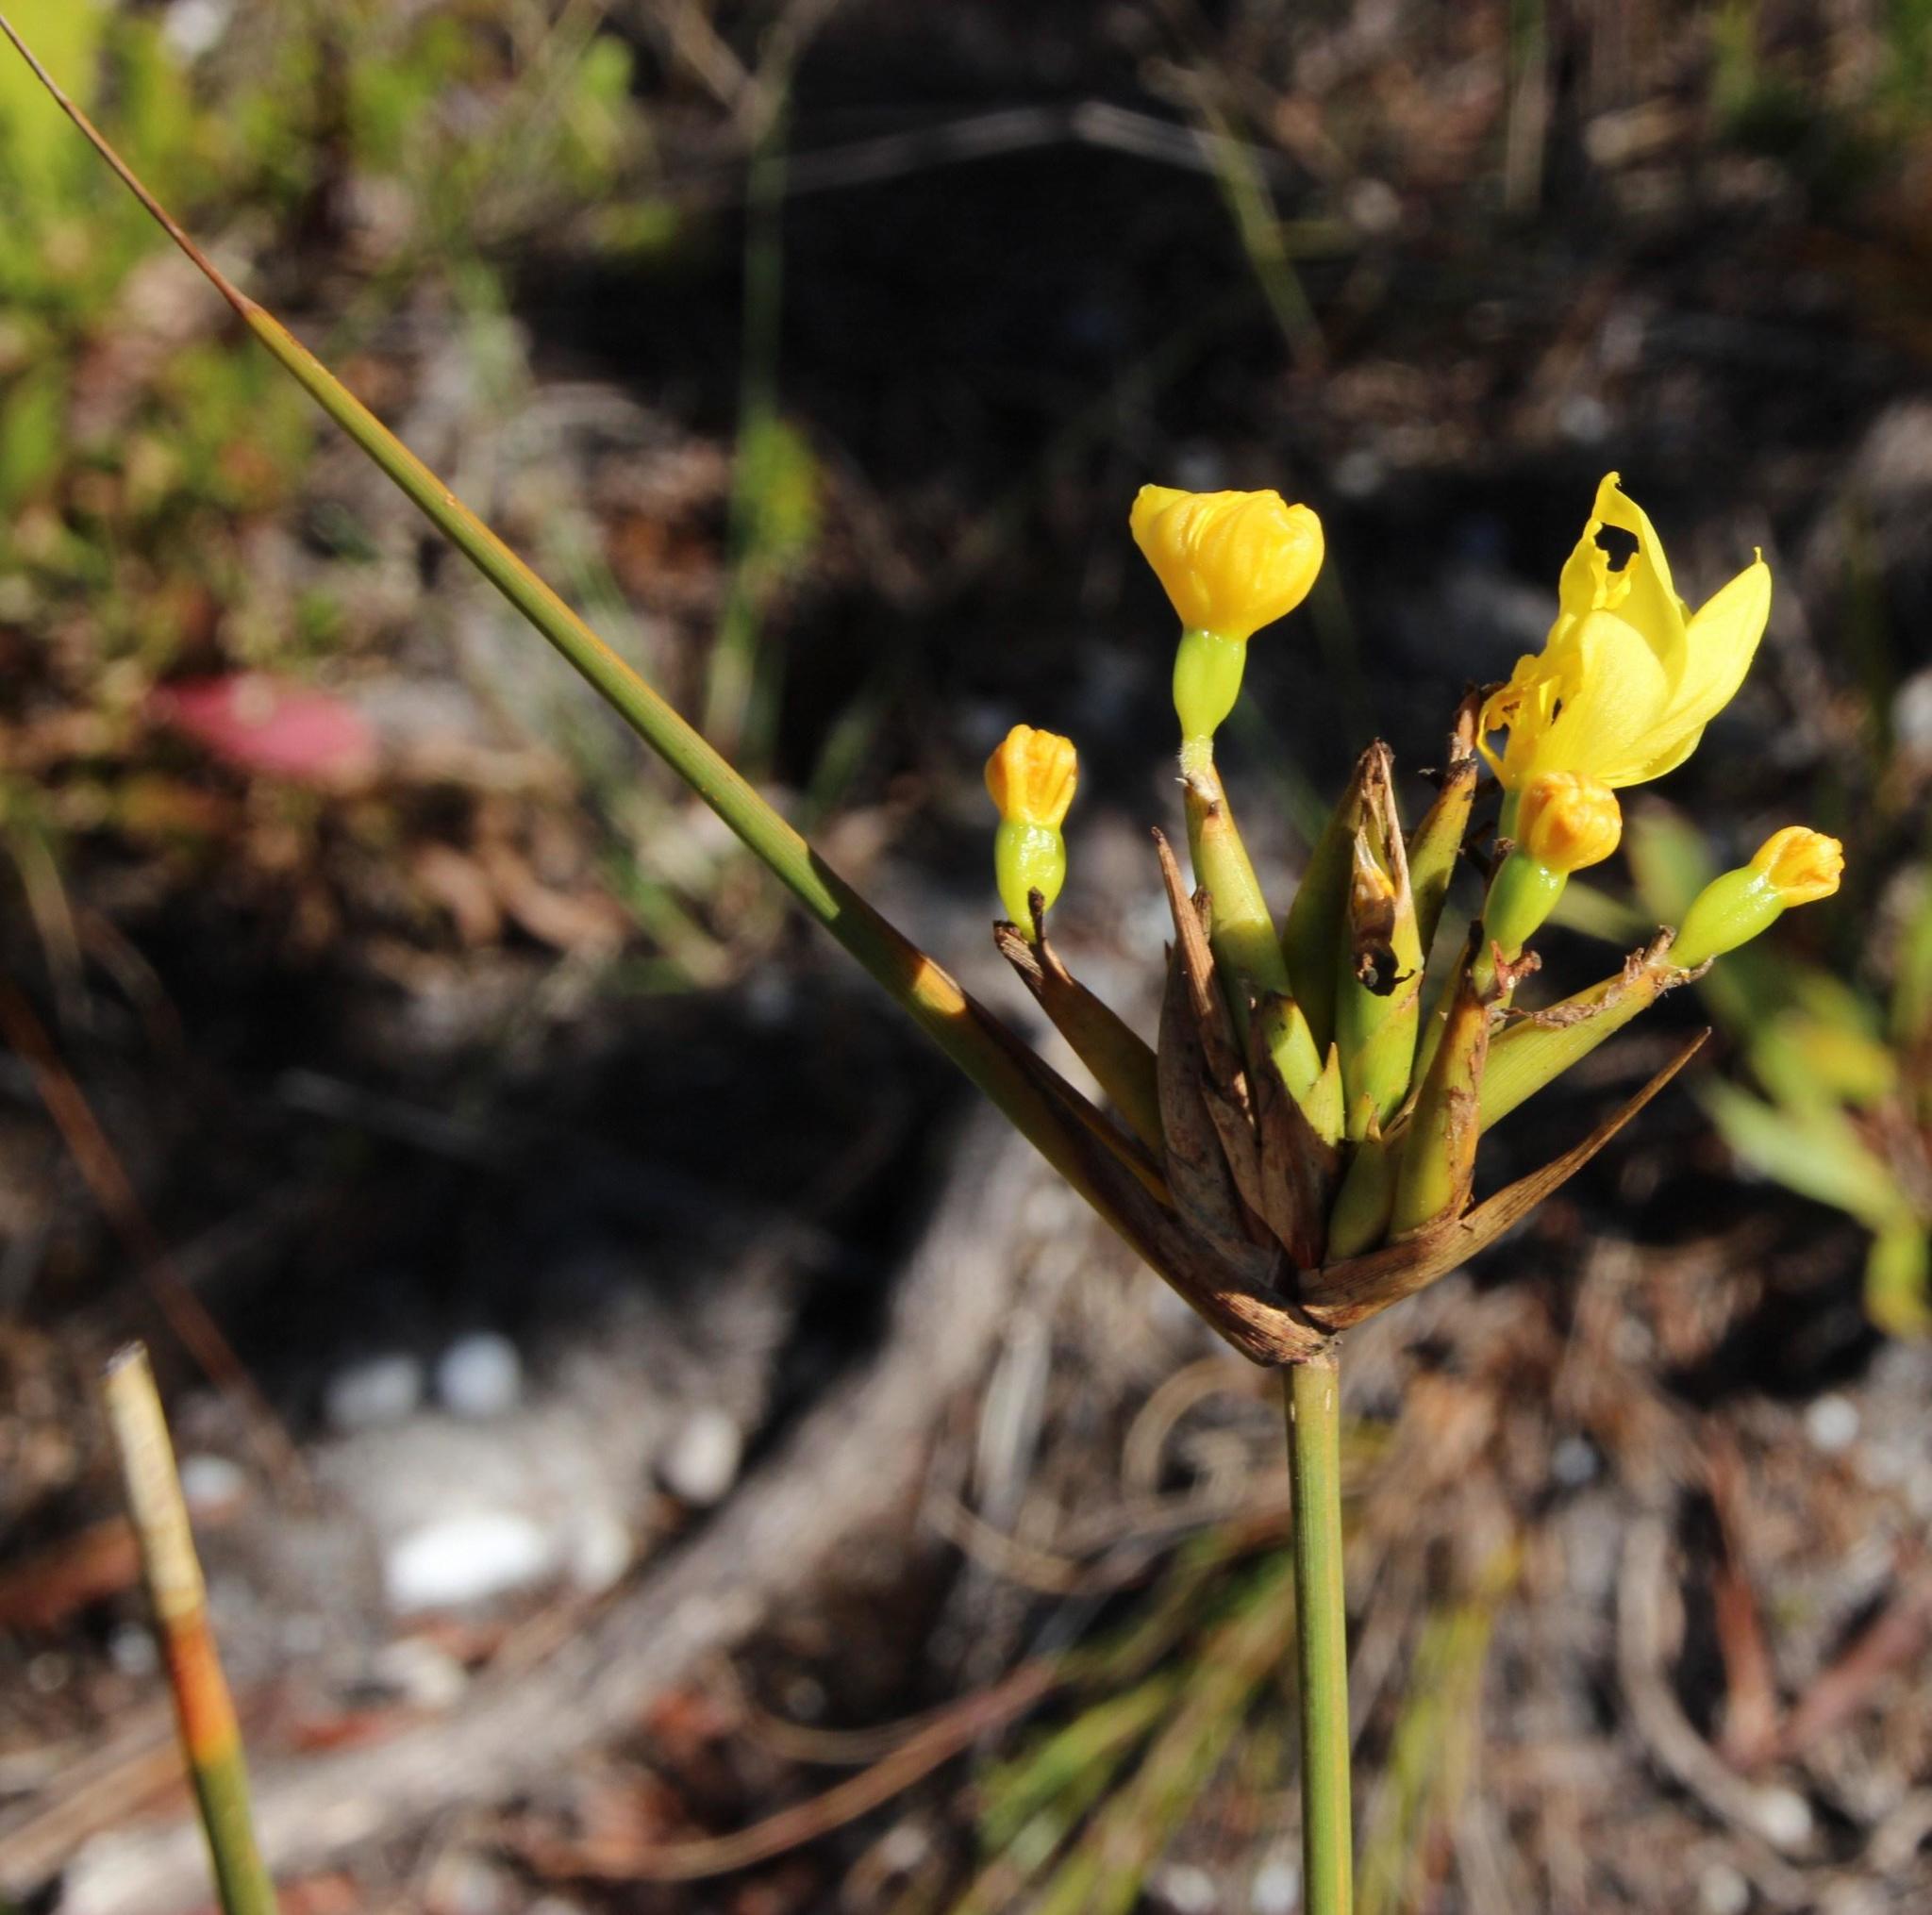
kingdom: Plantae
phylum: Tracheophyta
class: Liliopsida
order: Asparagales
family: Iridaceae
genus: Bobartia
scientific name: Bobartia indica
